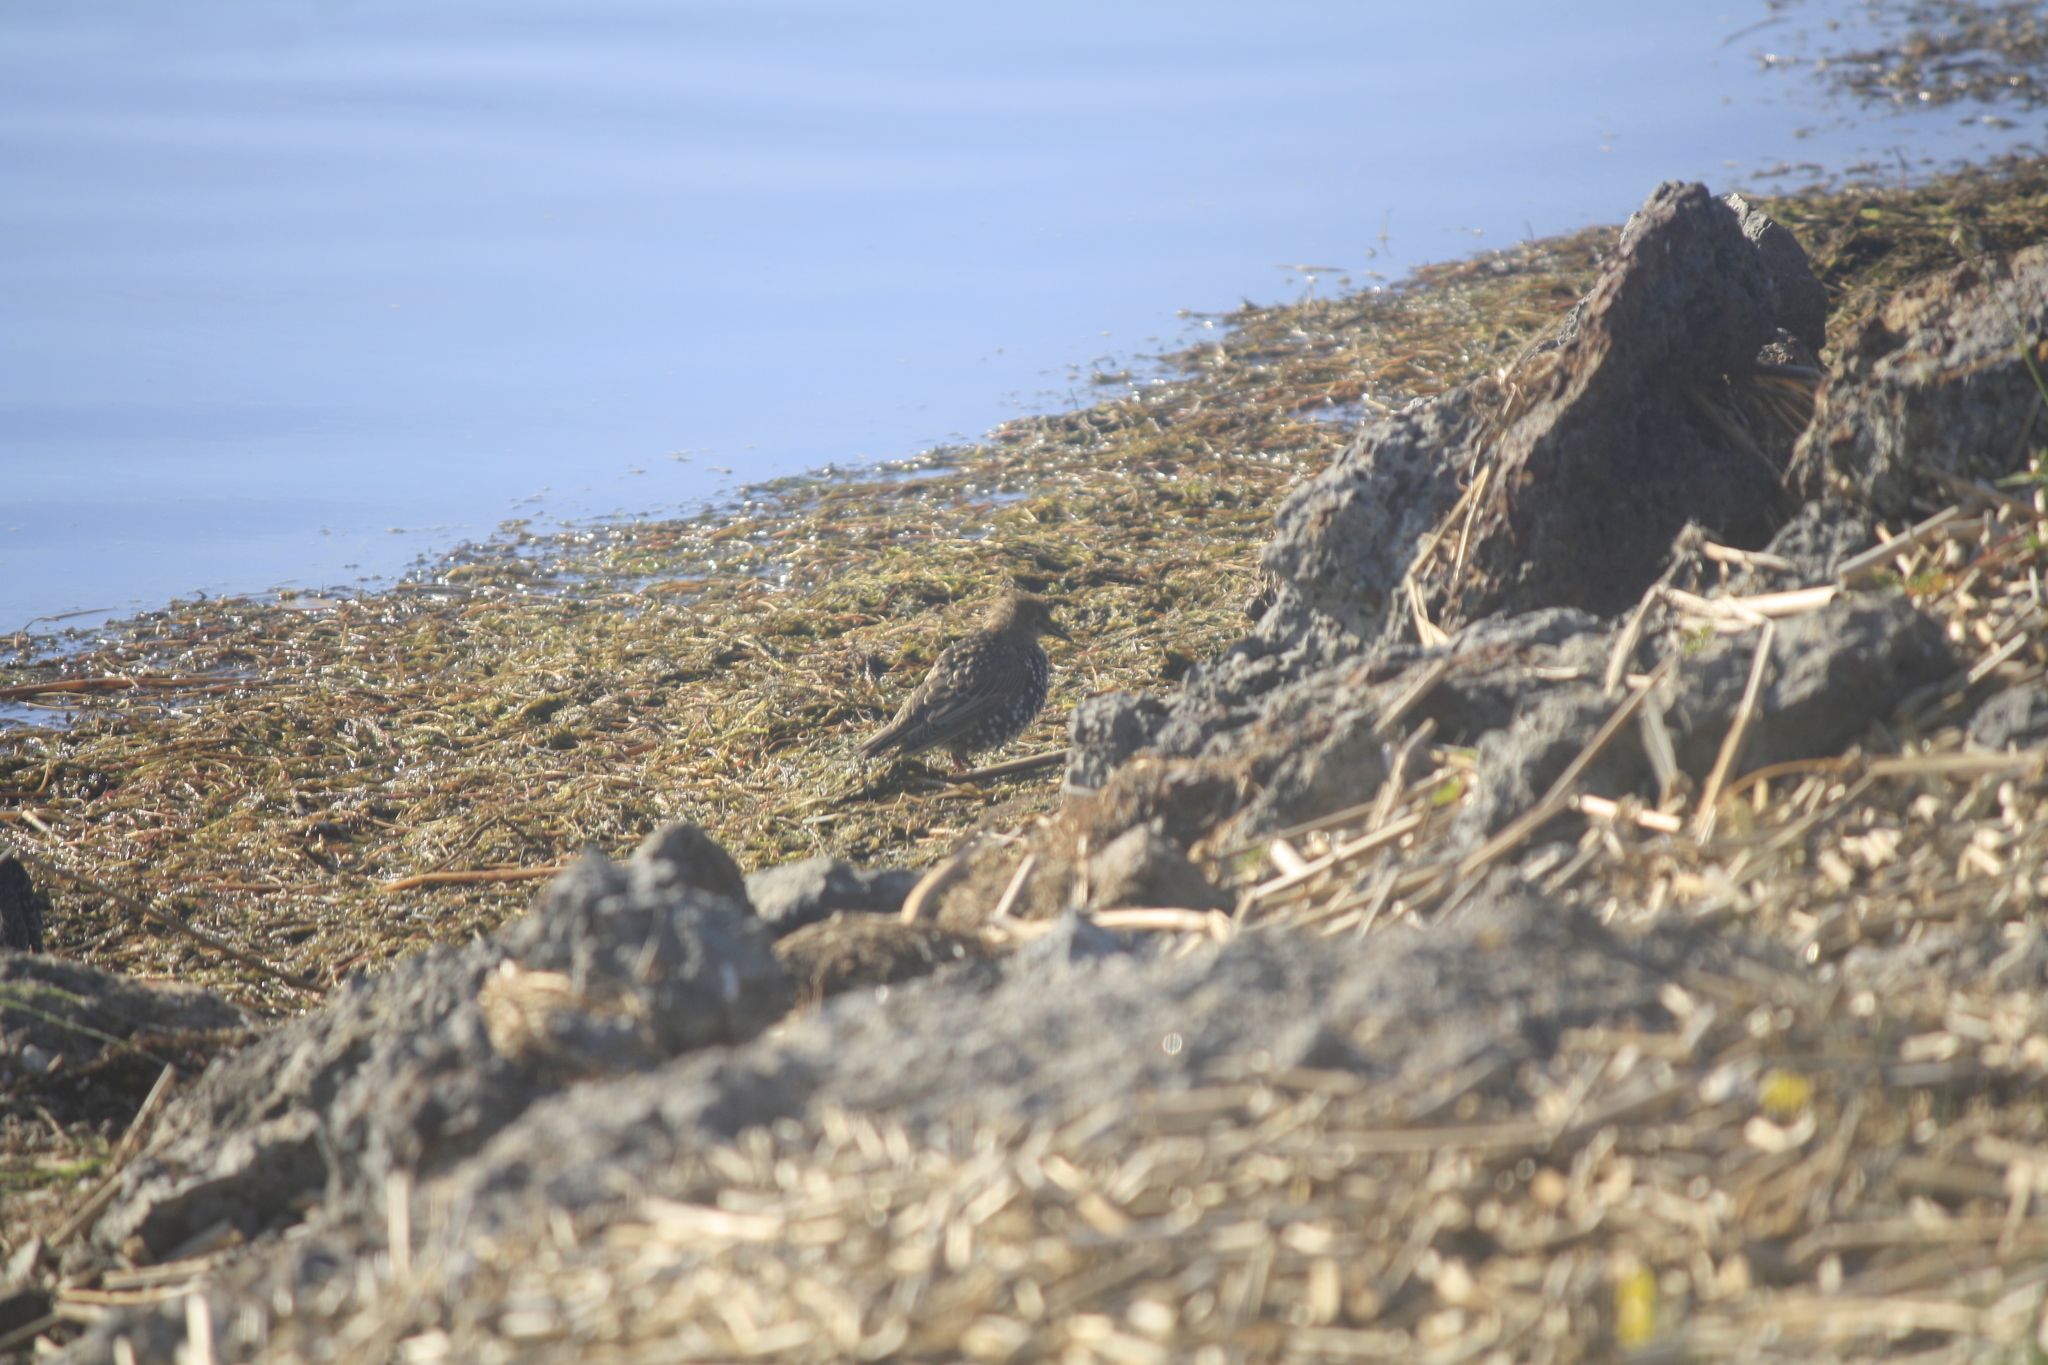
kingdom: Animalia
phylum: Chordata
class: Aves
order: Passeriformes
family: Sturnidae
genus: Sturnus
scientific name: Sturnus vulgaris
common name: Common starling
